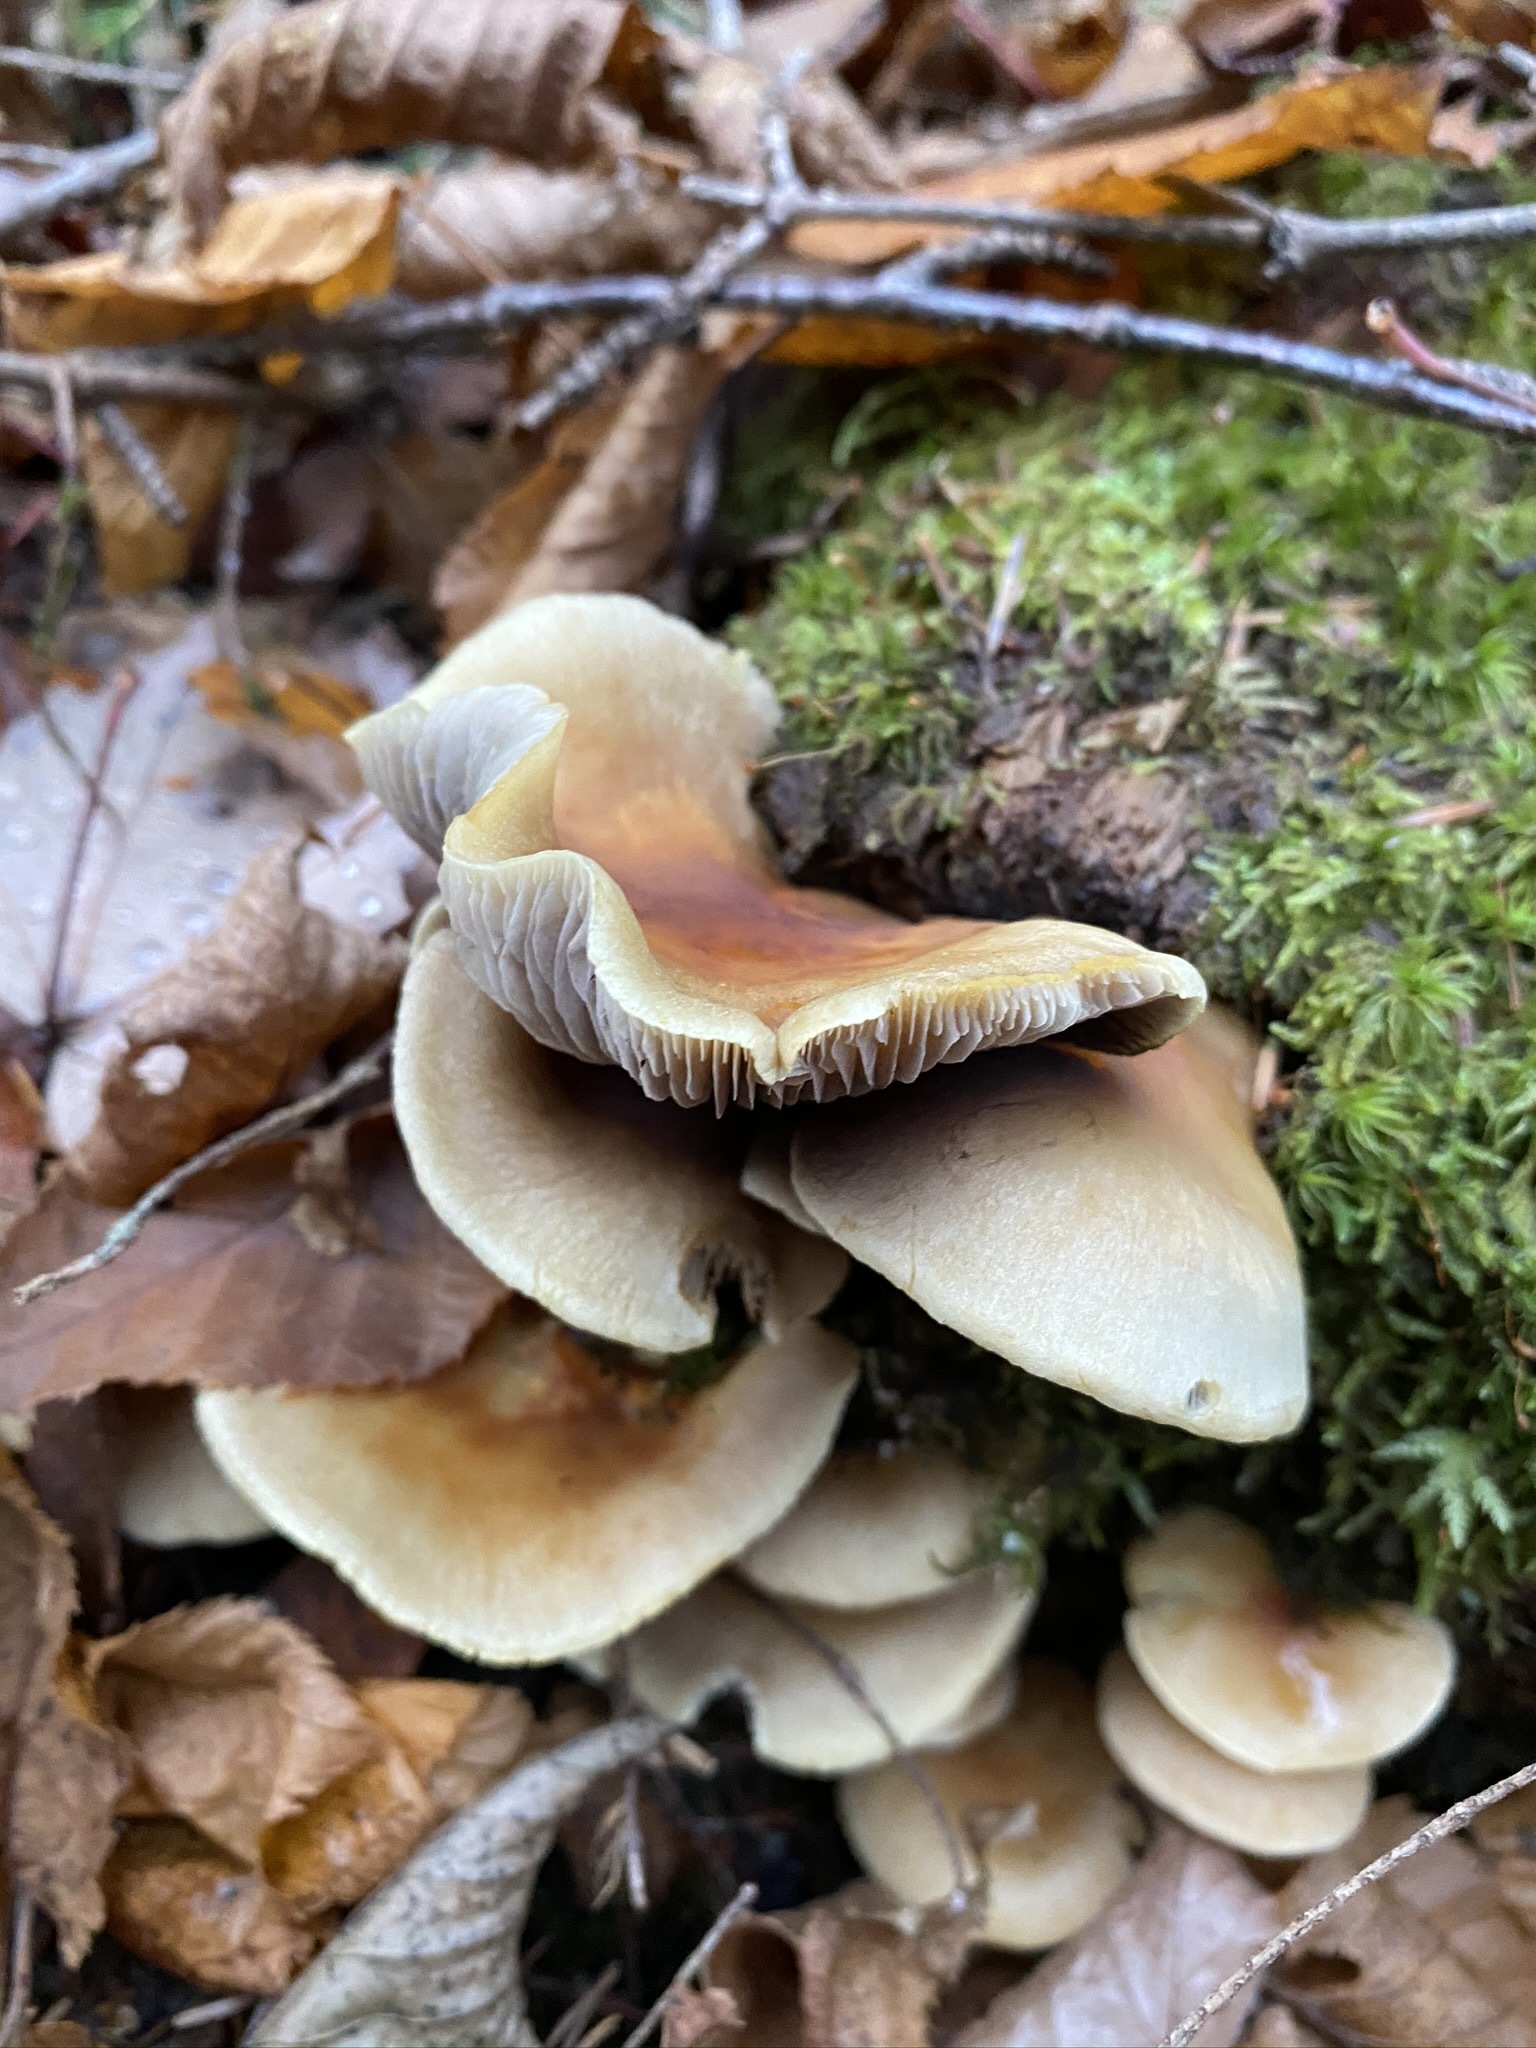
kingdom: Fungi
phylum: Basidiomycota
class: Agaricomycetes
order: Agaricales
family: Strophariaceae
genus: Hypholoma
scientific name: Hypholoma capnoides
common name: Conifer tuft
